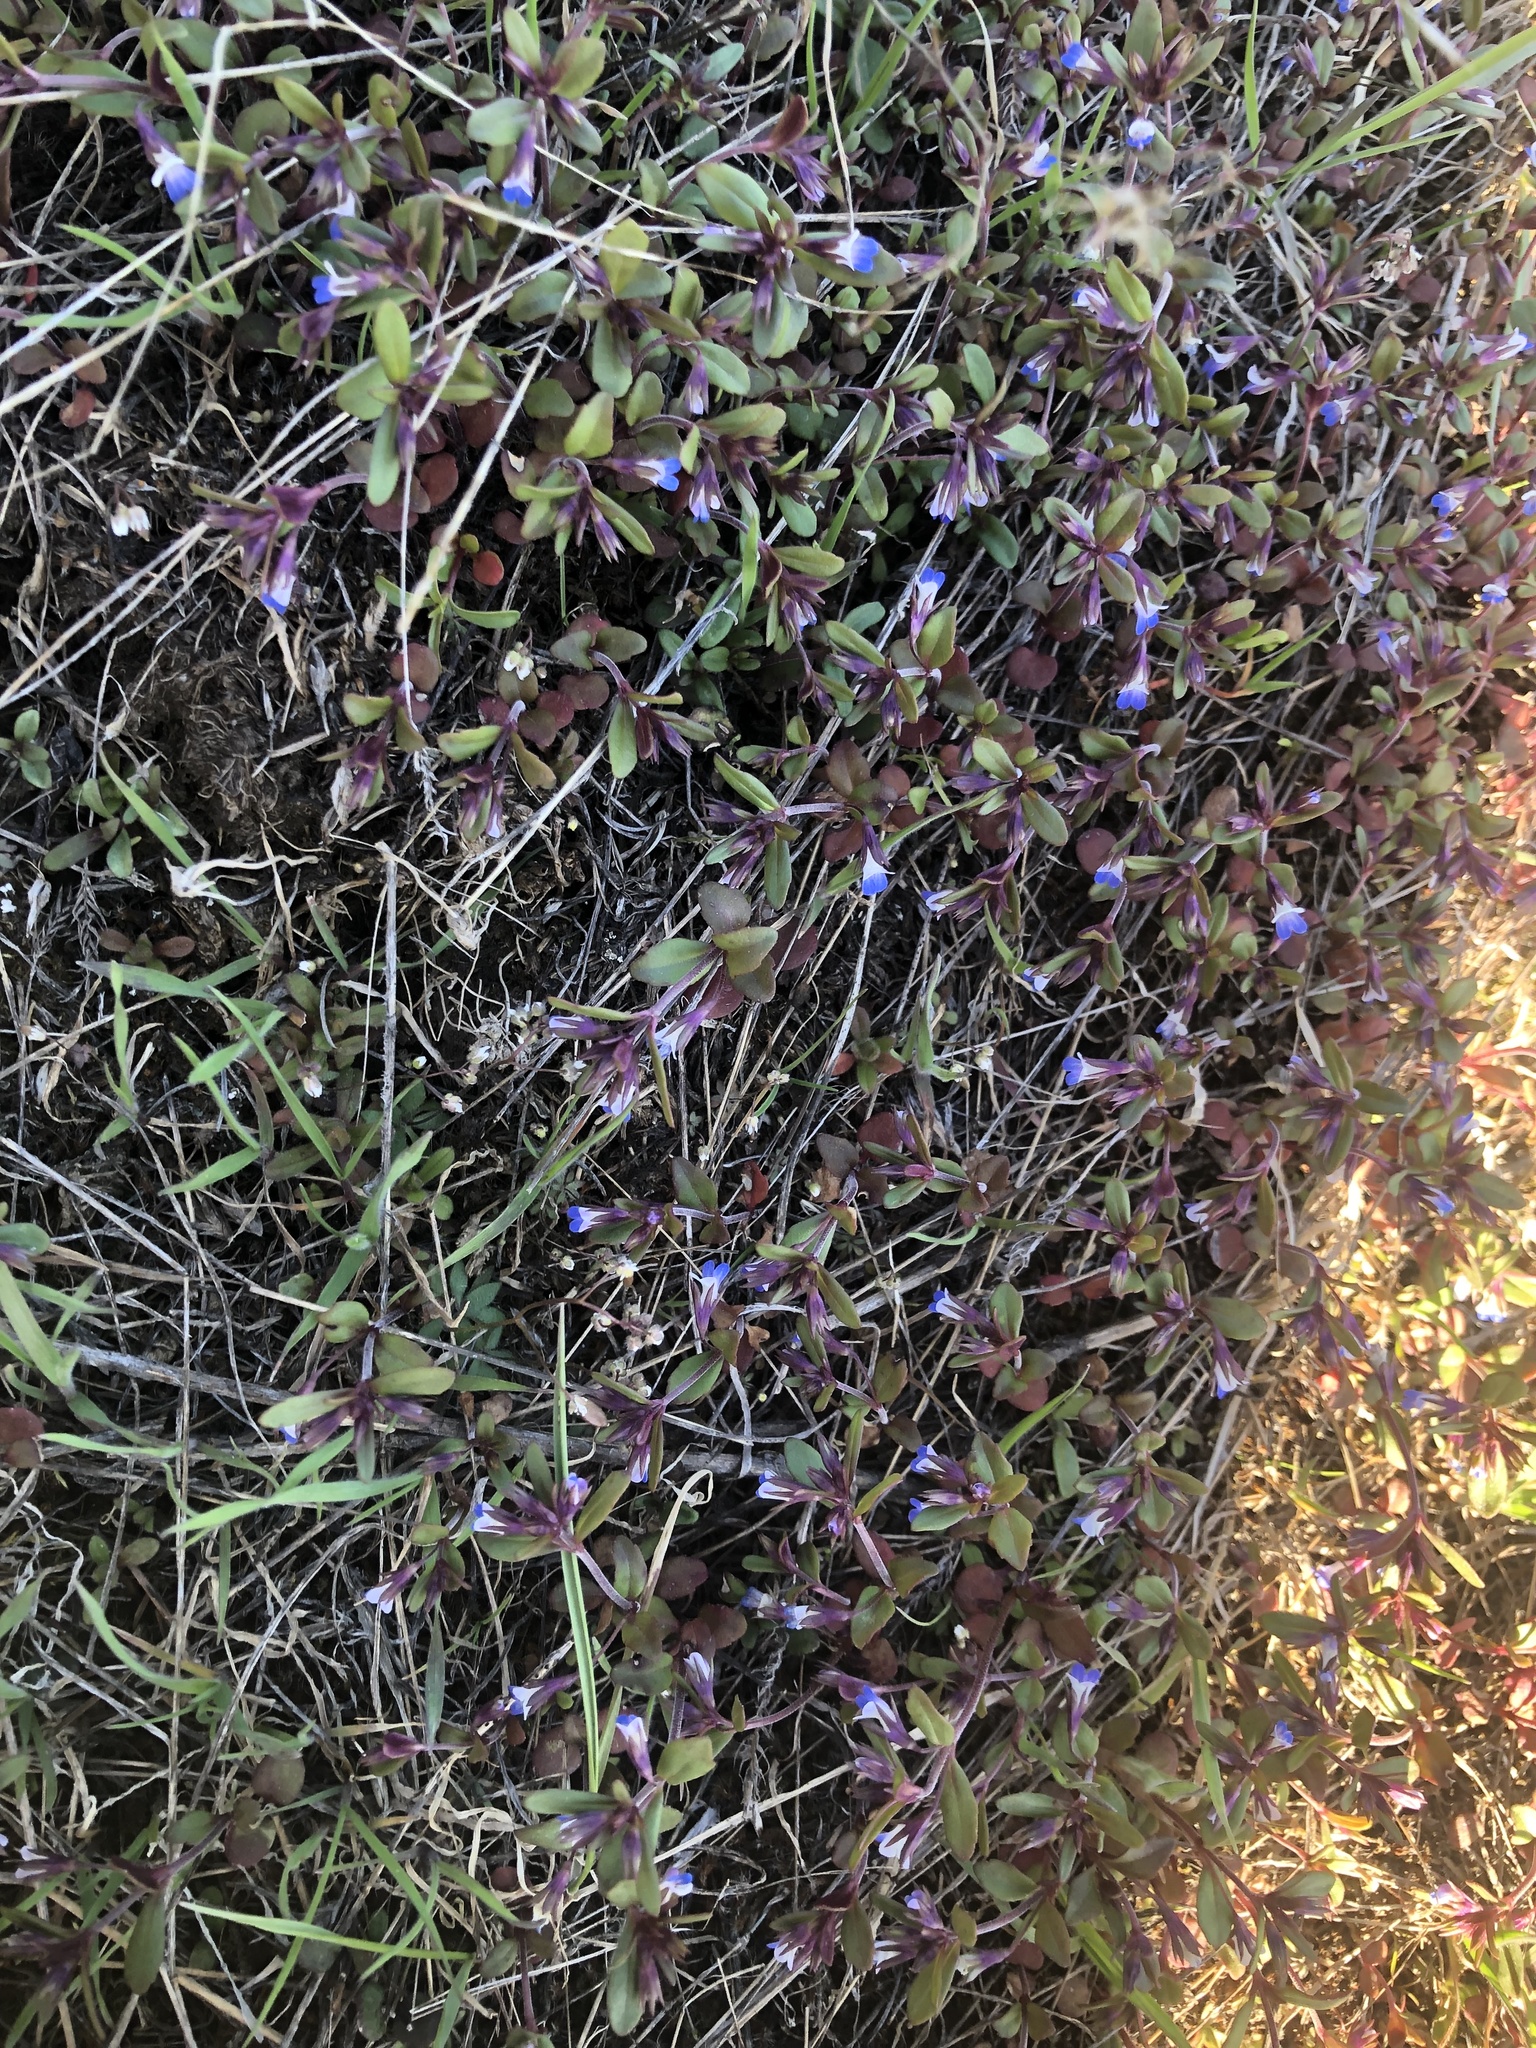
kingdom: Plantae
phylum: Tracheophyta
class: Magnoliopsida
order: Lamiales
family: Plantaginaceae
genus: Collinsia
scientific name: Collinsia parviflora
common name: Blue-lips
